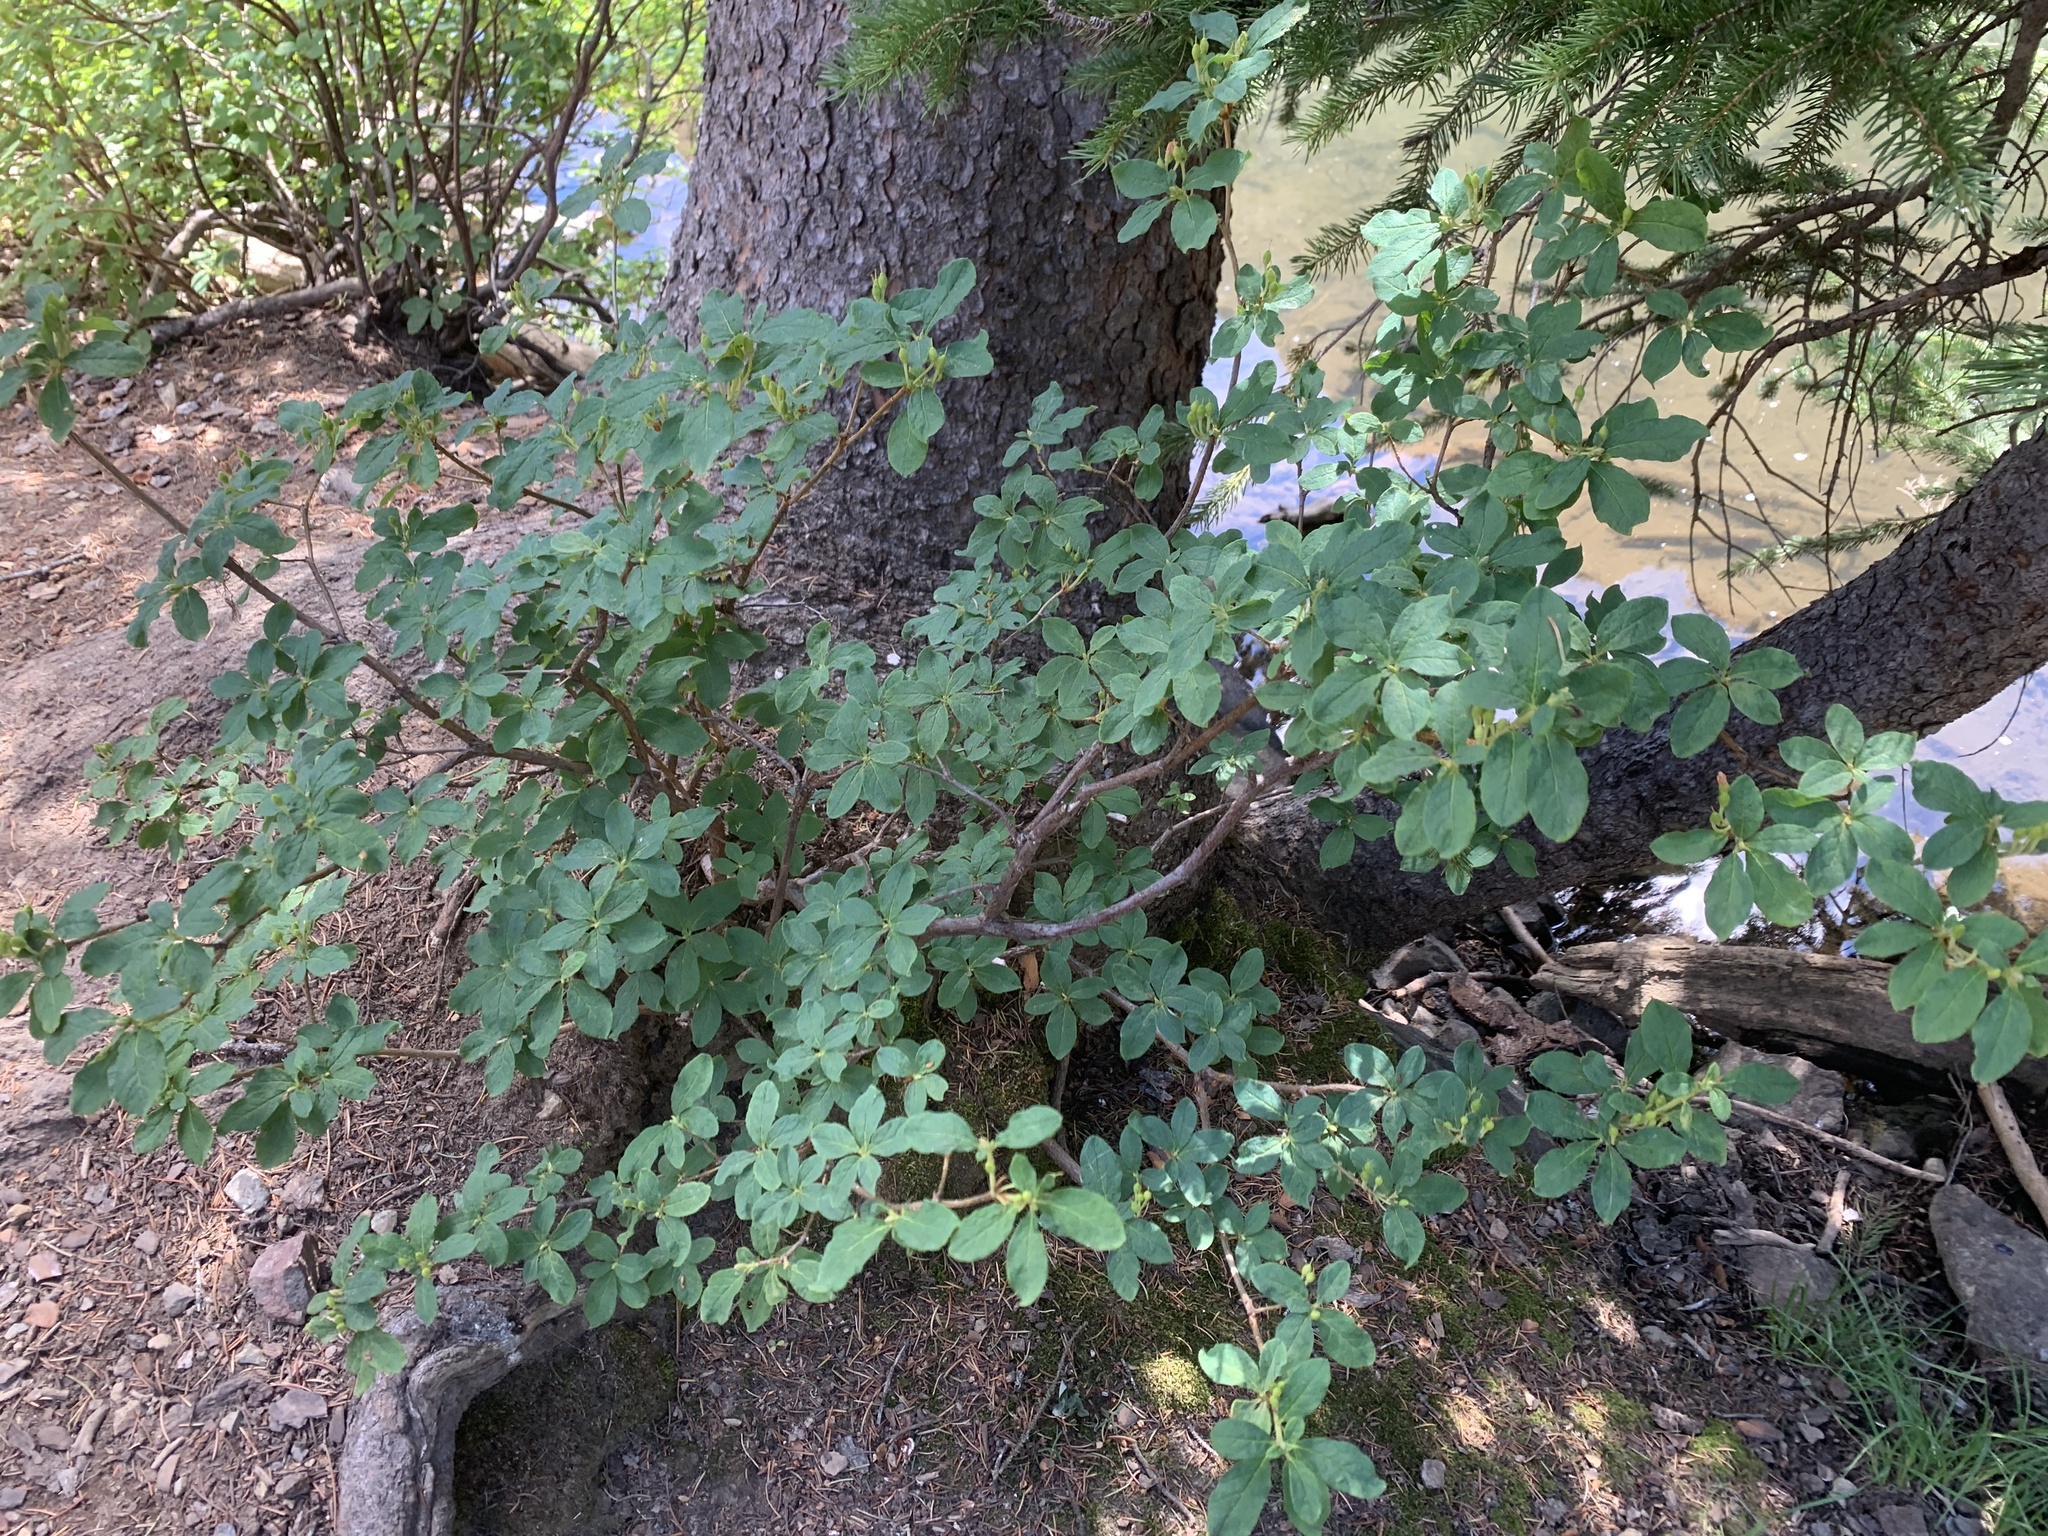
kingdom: Plantae
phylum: Tracheophyta
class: Magnoliopsida
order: Ericales
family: Ericaceae
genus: Rhododendron
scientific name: Rhododendron menziesii
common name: Pacific menziesia
